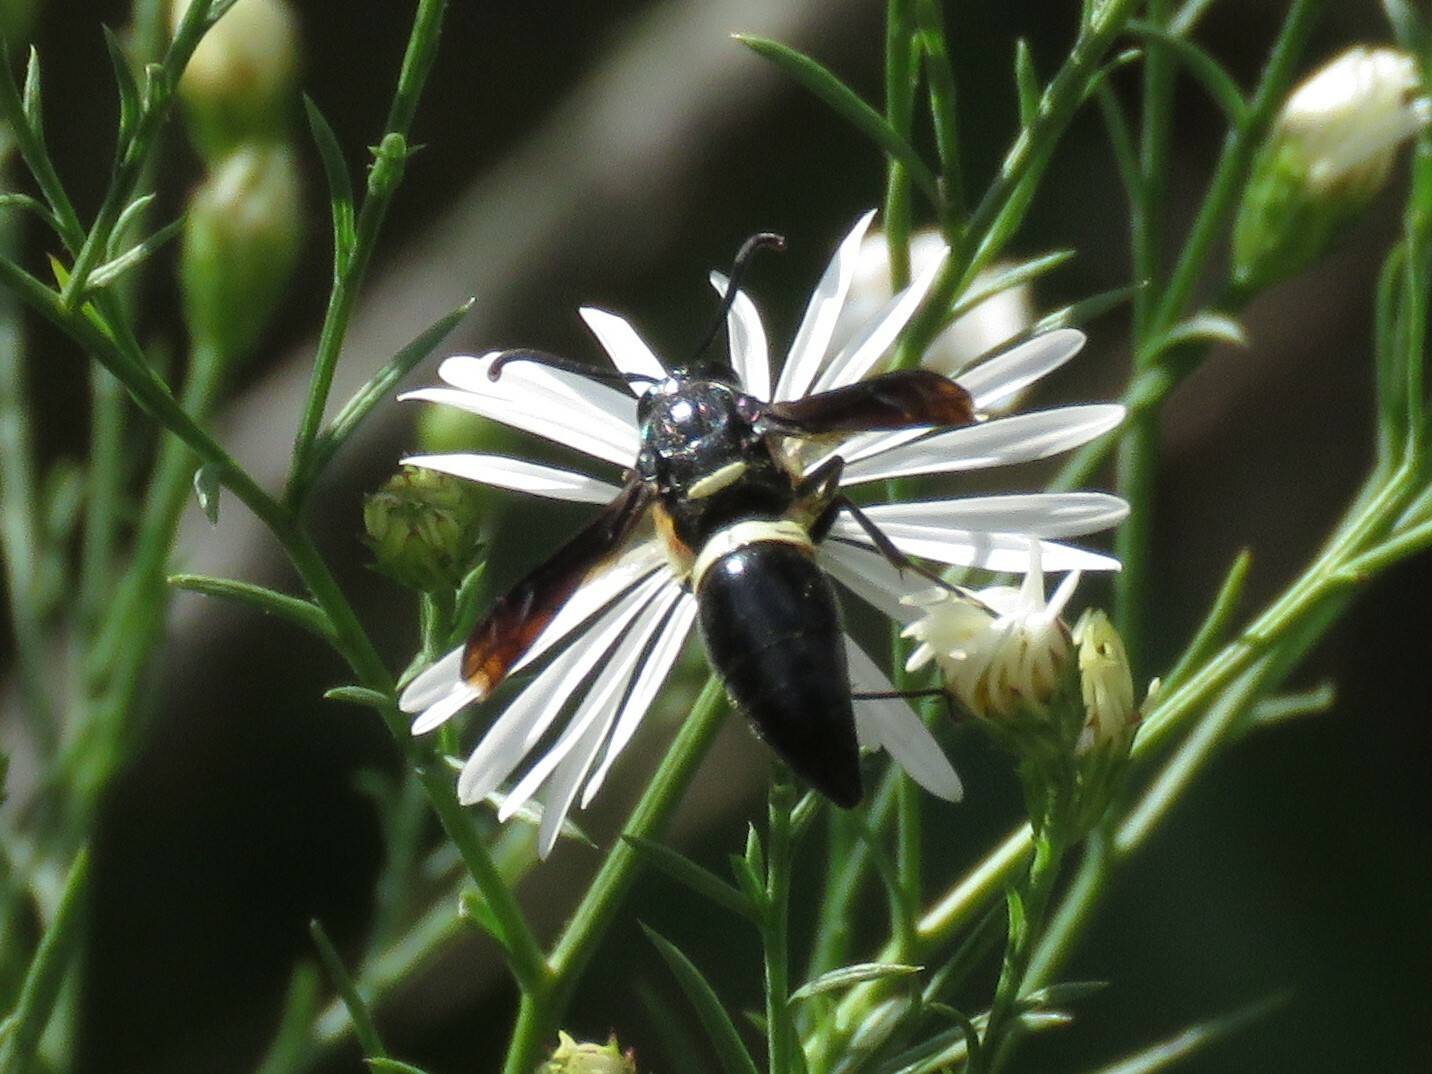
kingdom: Animalia
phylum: Arthropoda
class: Insecta
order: Hymenoptera
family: Eumenidae
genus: Monobia
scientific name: Monobia quadridens
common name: Four-toothed mason wasp
